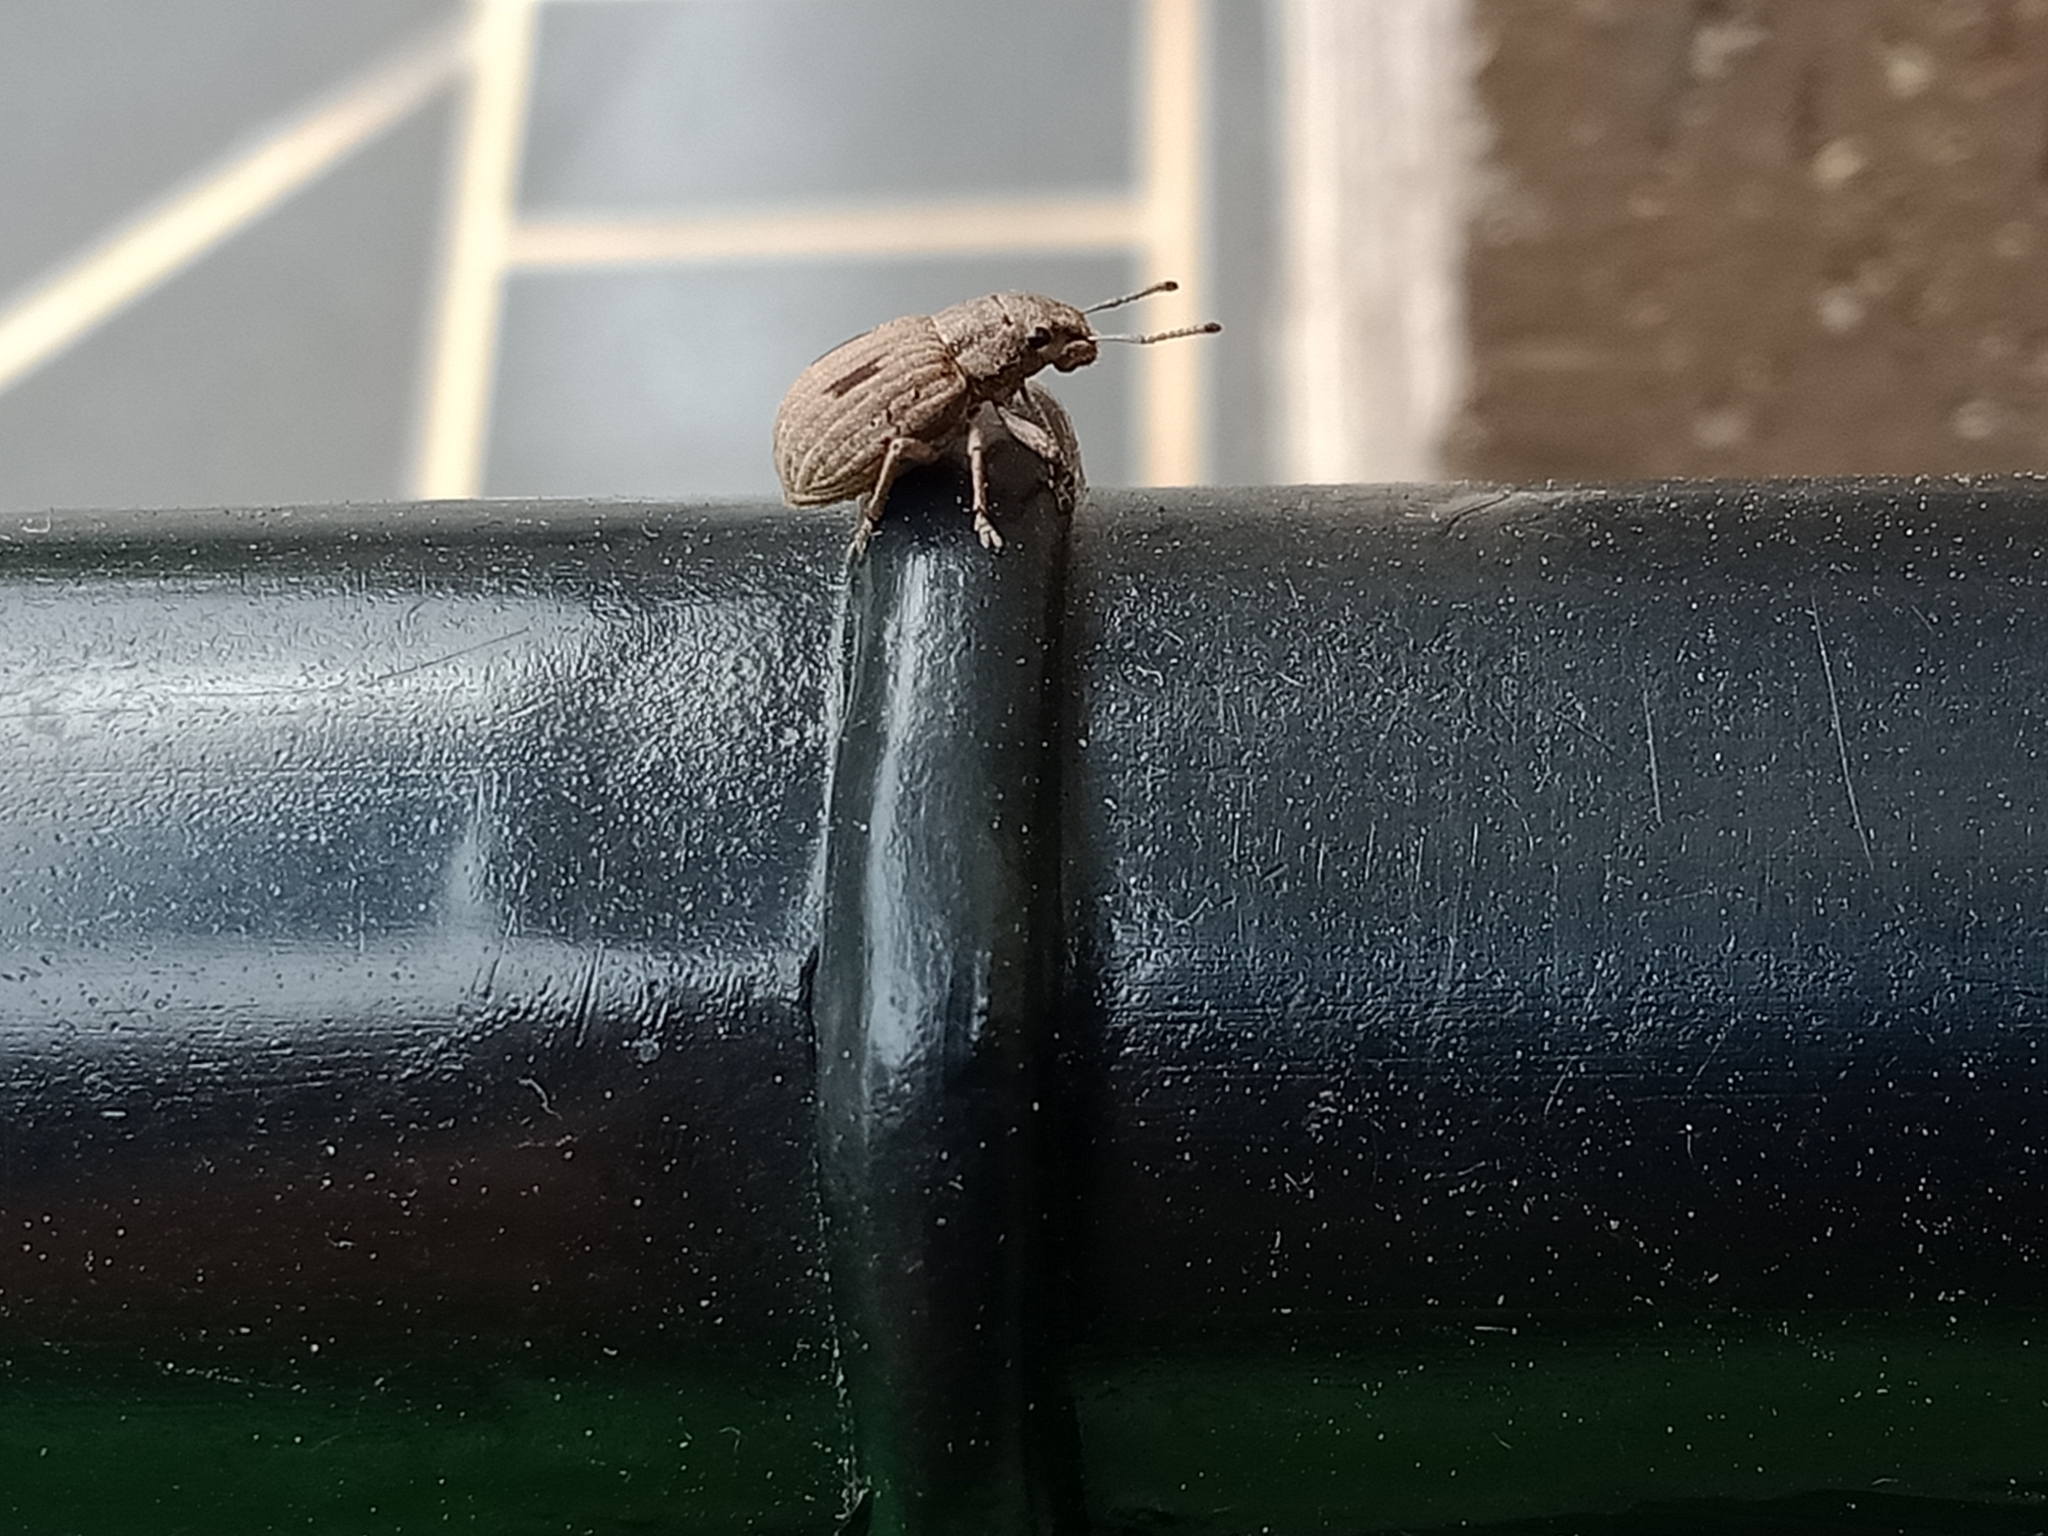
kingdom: Animalia
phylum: Arthropoda
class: Insecta
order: Coleoptera
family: Curculionidae
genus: Eurymetopus
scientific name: Eurymetopus birabeni
